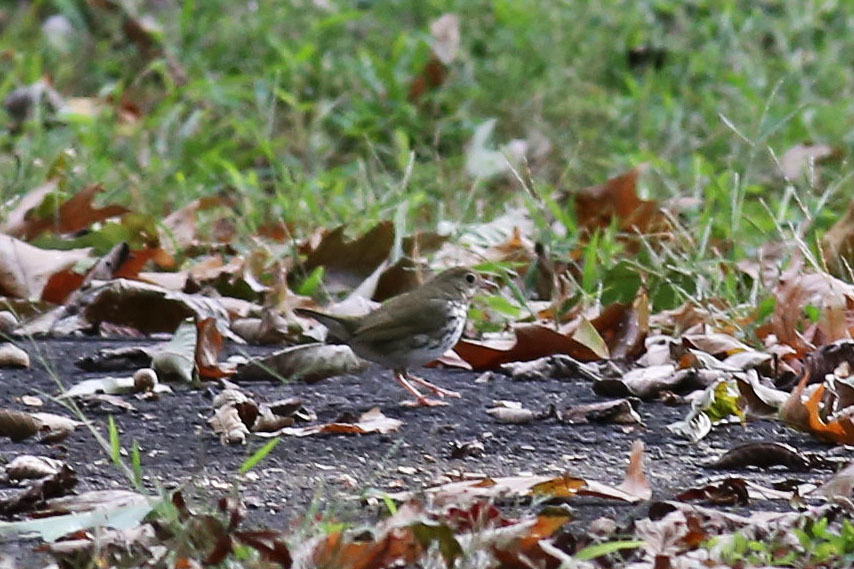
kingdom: Animalia
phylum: Chordata
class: Aves
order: Passeriformes
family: Parulidae
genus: Seiurus
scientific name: Seiurus aurocapilla
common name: Ovenbird
